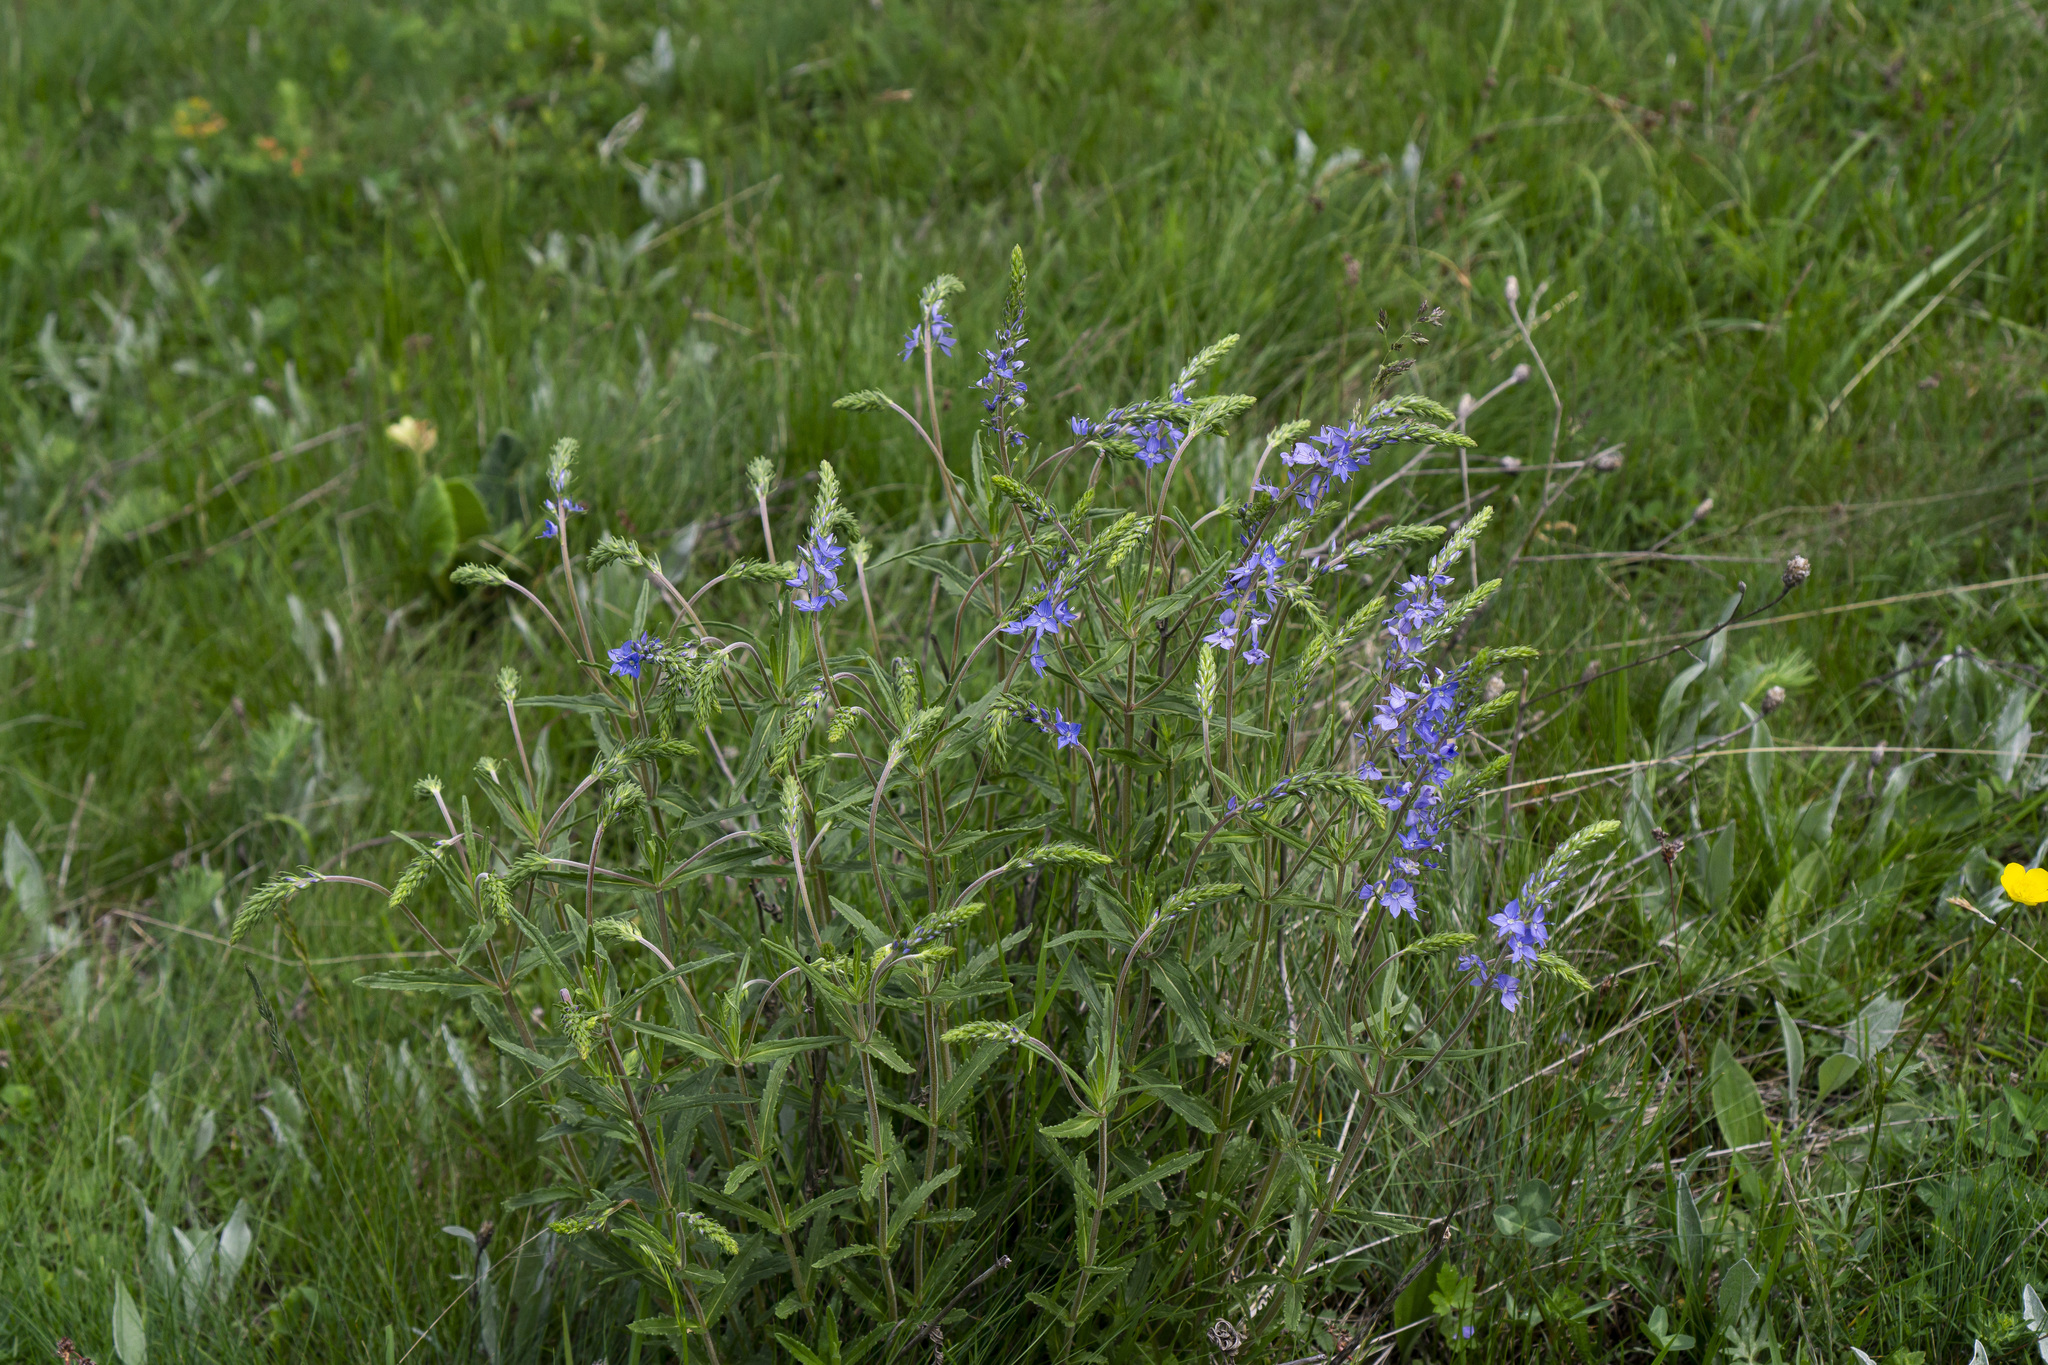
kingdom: Plantae
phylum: Tracheophyta
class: Magnoliopsida
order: Lamiales
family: Plantaginaceae
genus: Veronica
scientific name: Veronica austriaca
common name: Large speedwell
